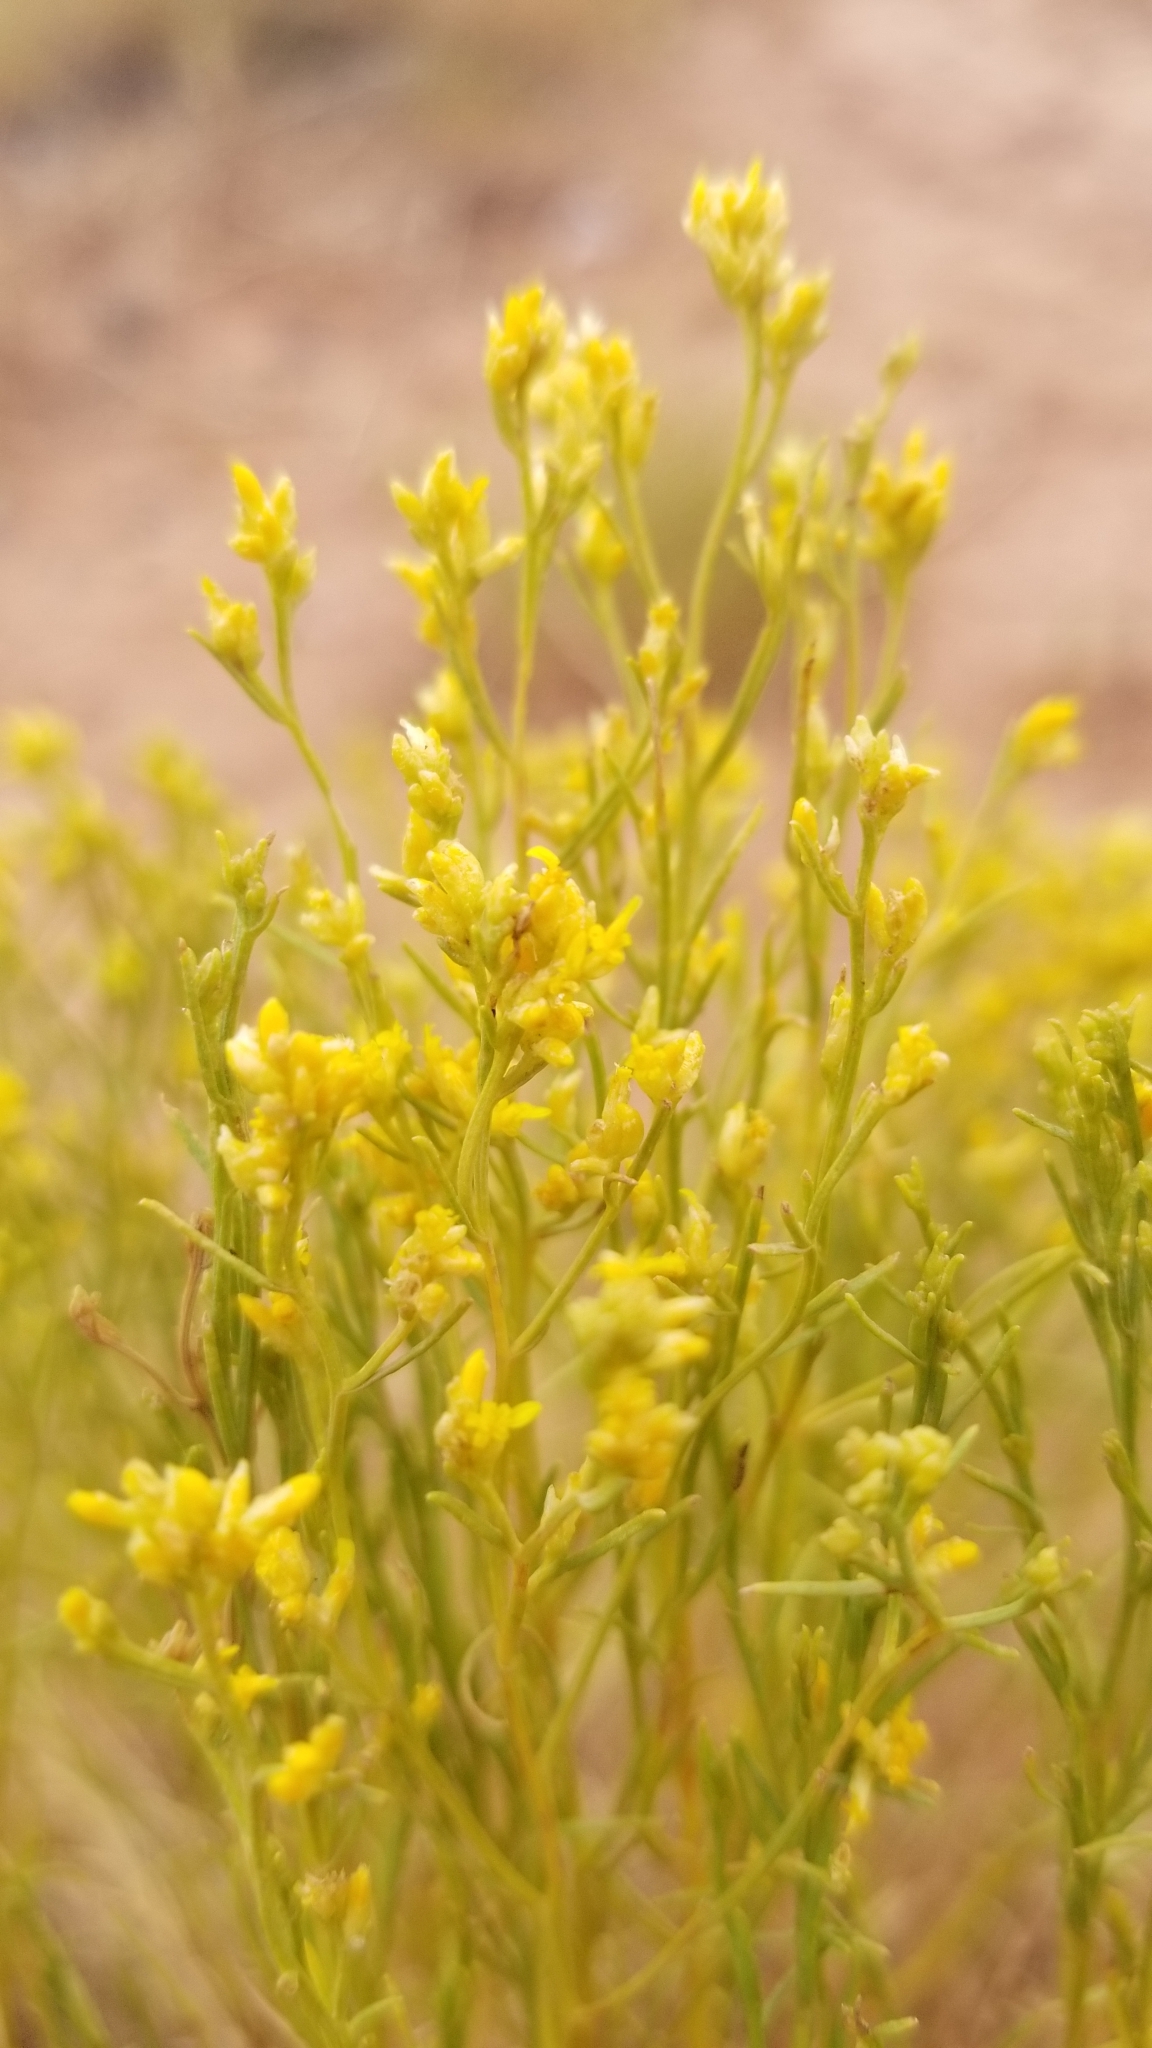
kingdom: Plantae
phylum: Tracheophyta
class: Magnoliopsida
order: Asterales
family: Asteraceae
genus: Gutierrezia
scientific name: Gutierrezia sarothrae
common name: Broom snakeweed
